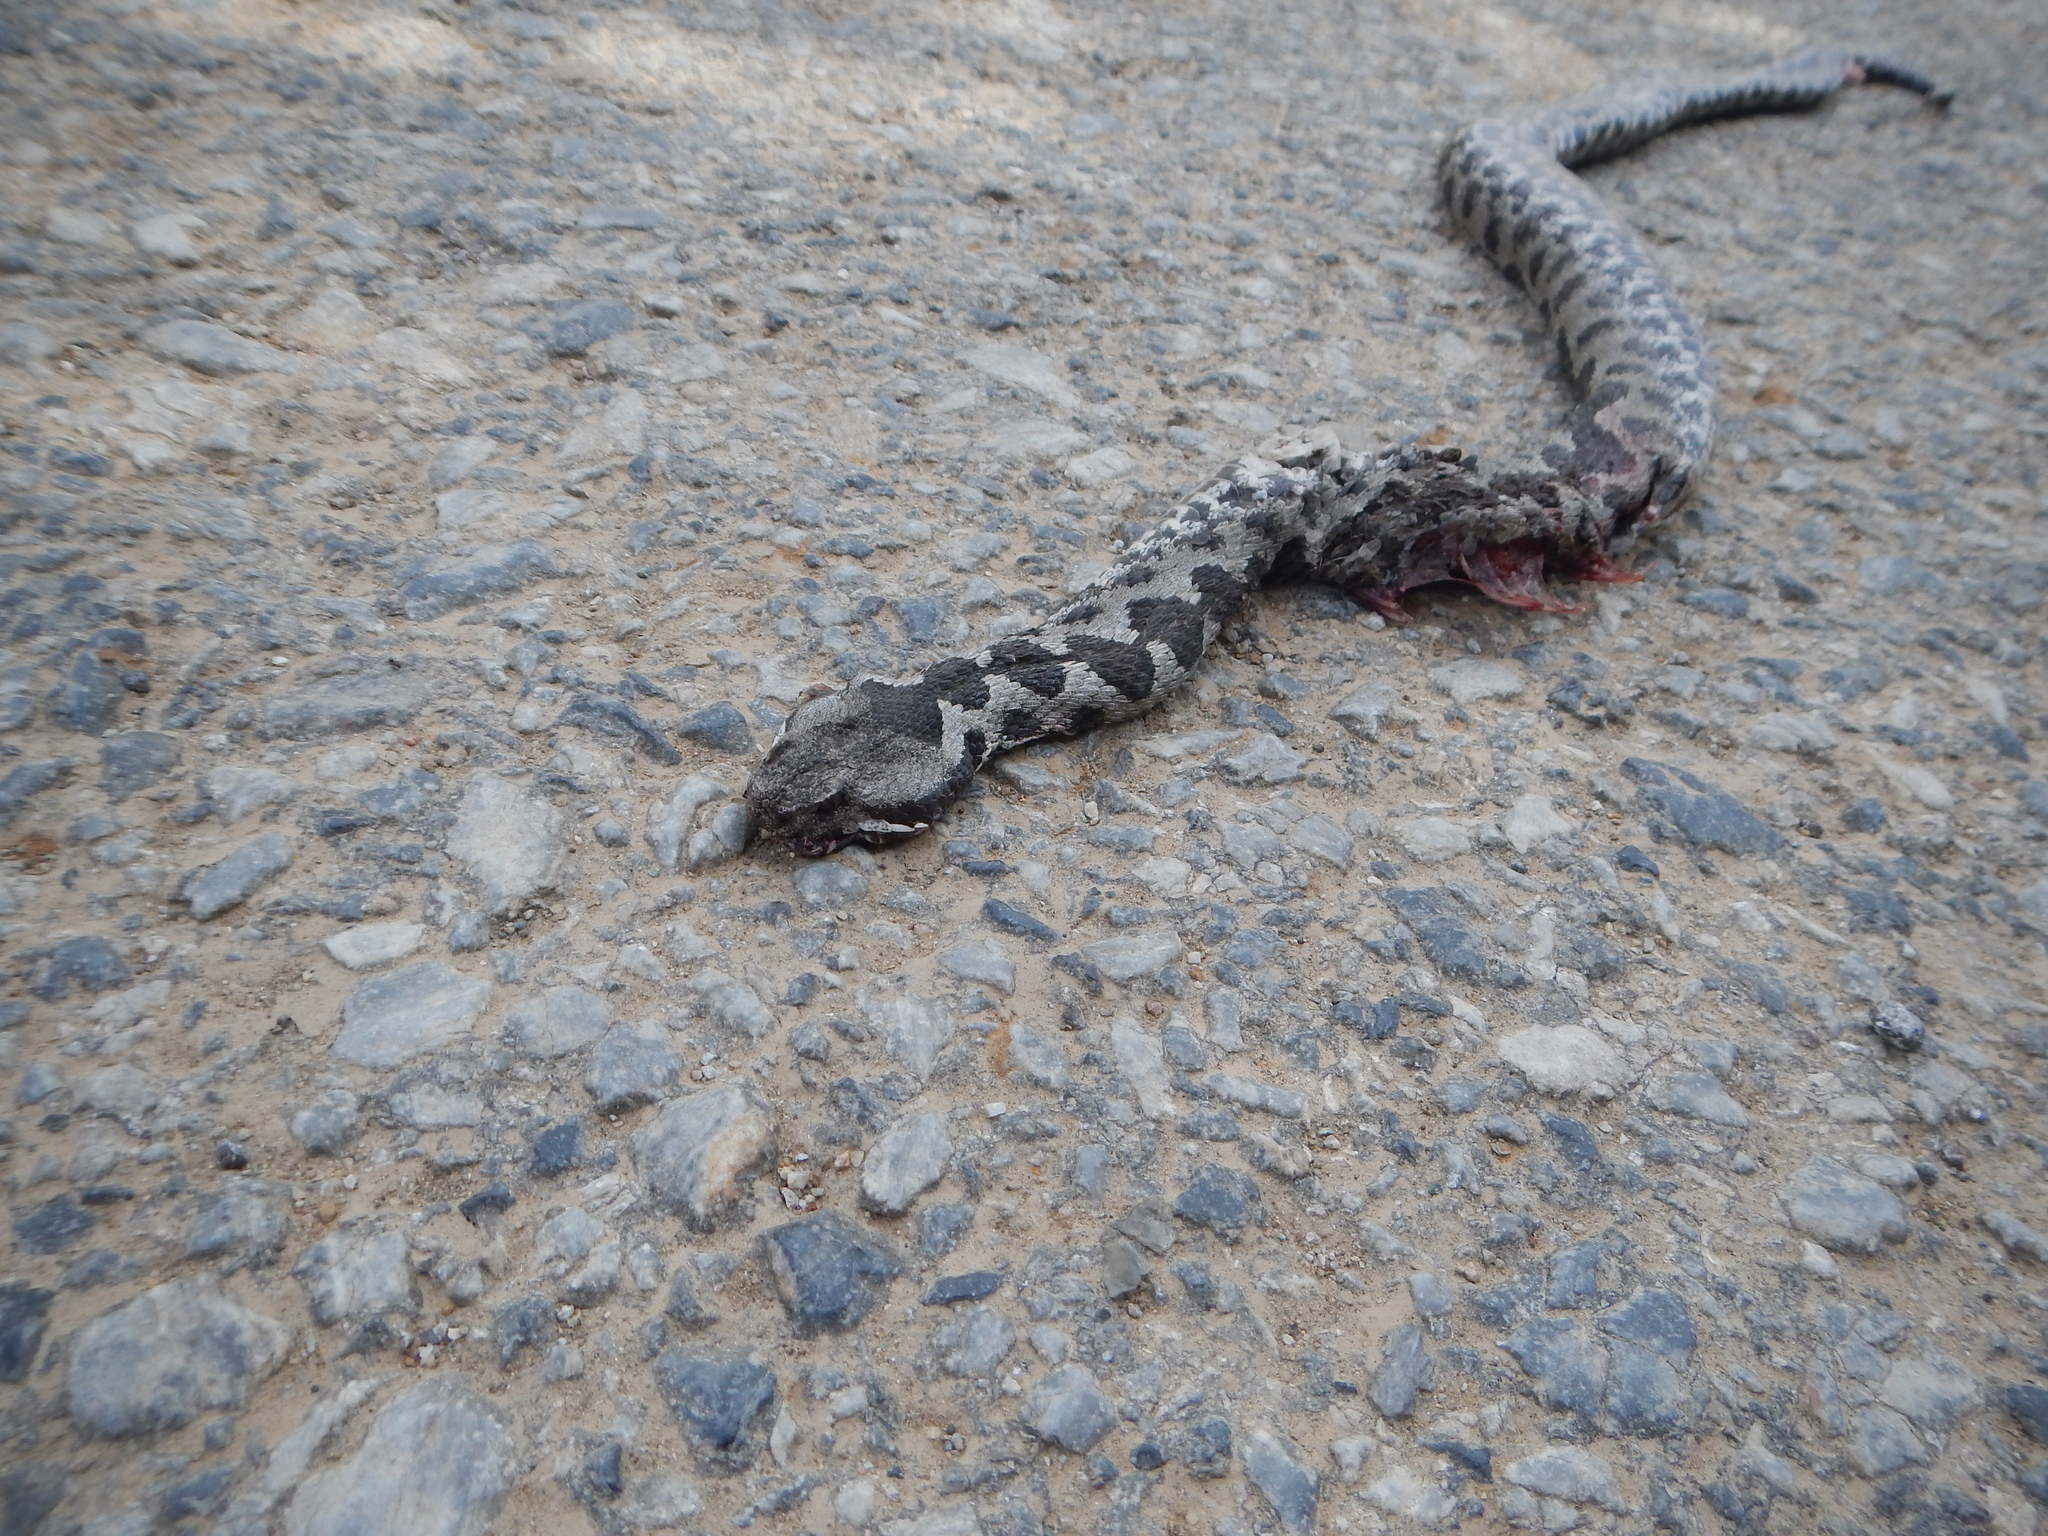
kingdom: Animalia
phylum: Chordata
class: Squamata
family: Viperidae
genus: Vipera
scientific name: Vipera ammodytes
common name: Sand viper
